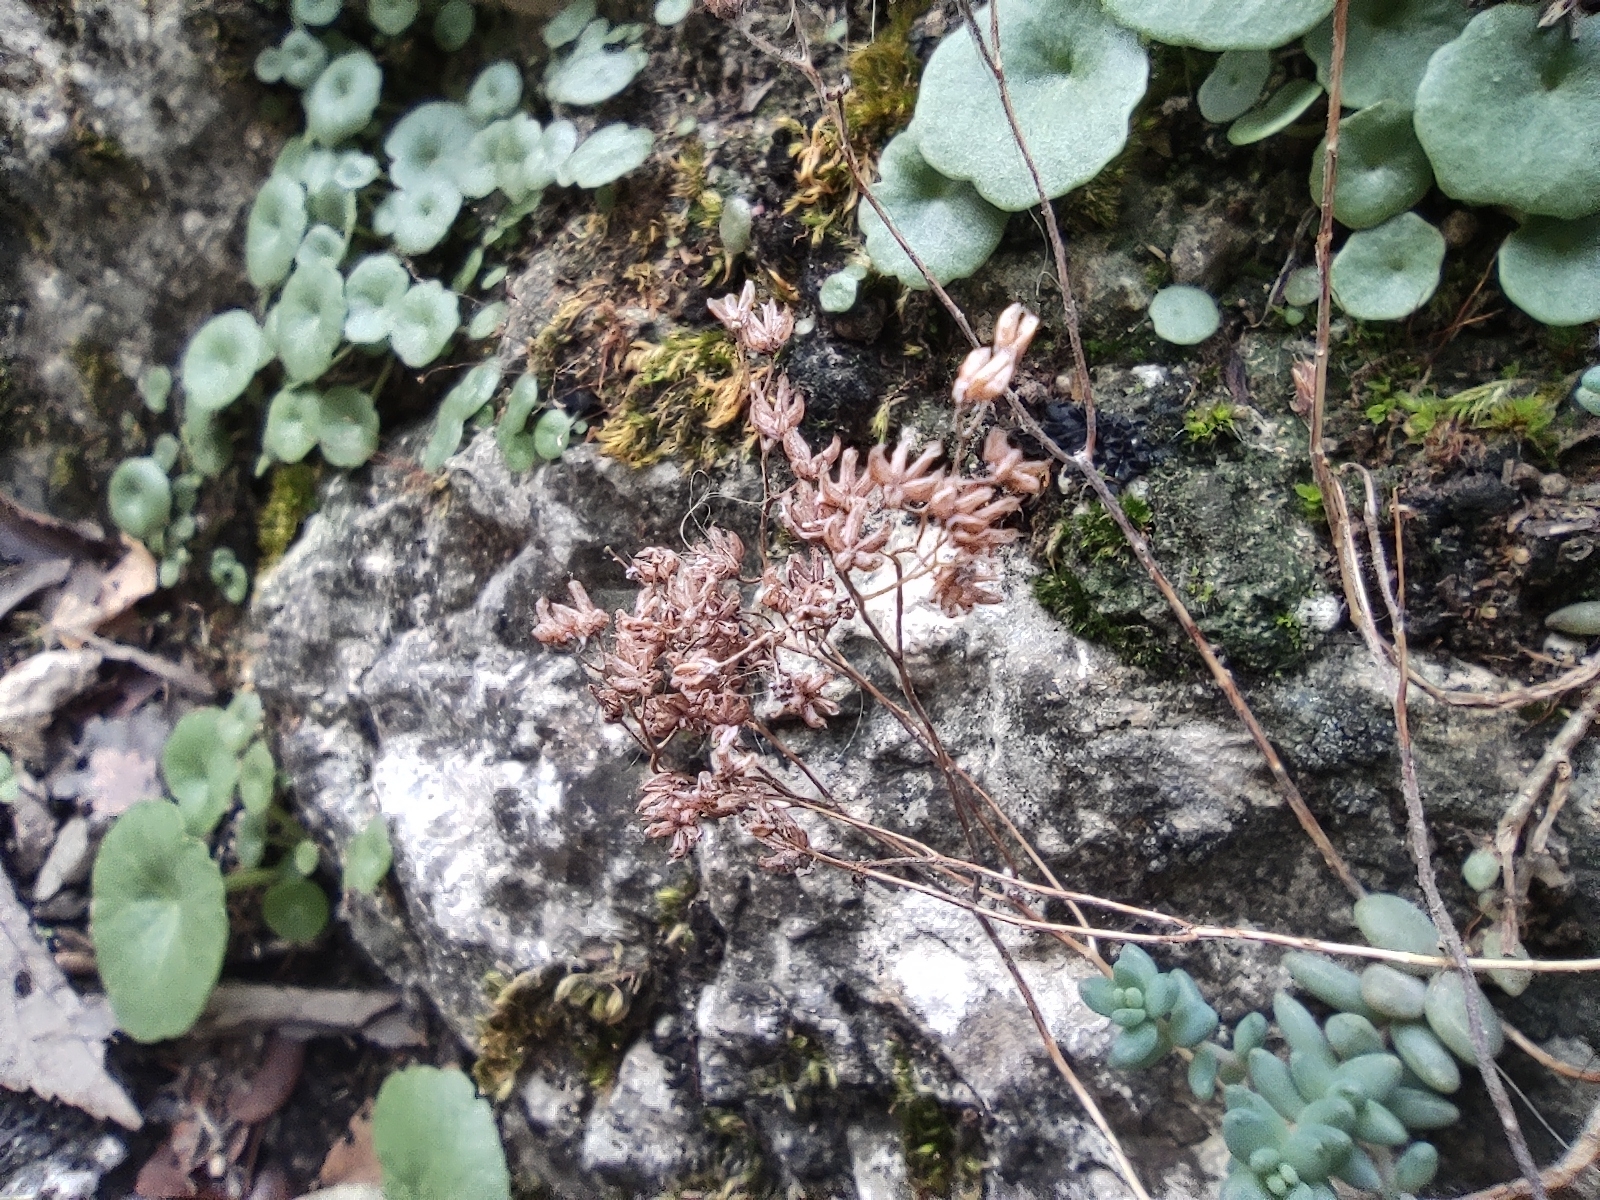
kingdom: Plantae
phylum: Tracheophyta
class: Magnoliopsida
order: Saxifragales
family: Crassulaceae
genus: Sedum
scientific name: Sedum dasyphyllum
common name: Thick-leaf stonecrop
